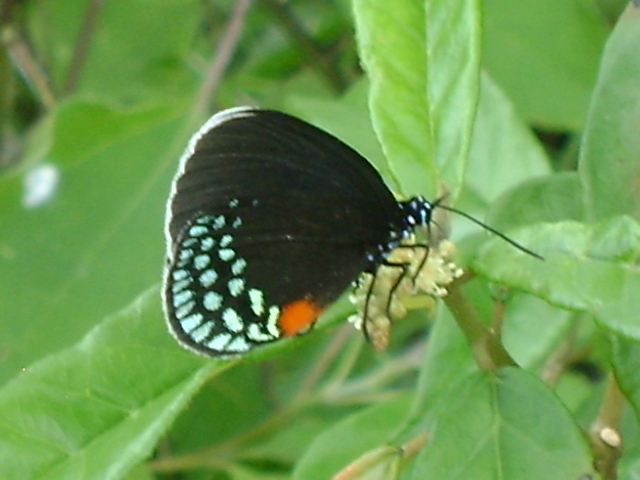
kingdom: Animalia
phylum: Arthropoda
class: Insecta
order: Lepidoptera
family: Lycaenidae
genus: Eumaeus
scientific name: Eumaeus toxea
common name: Mexican cycadian
